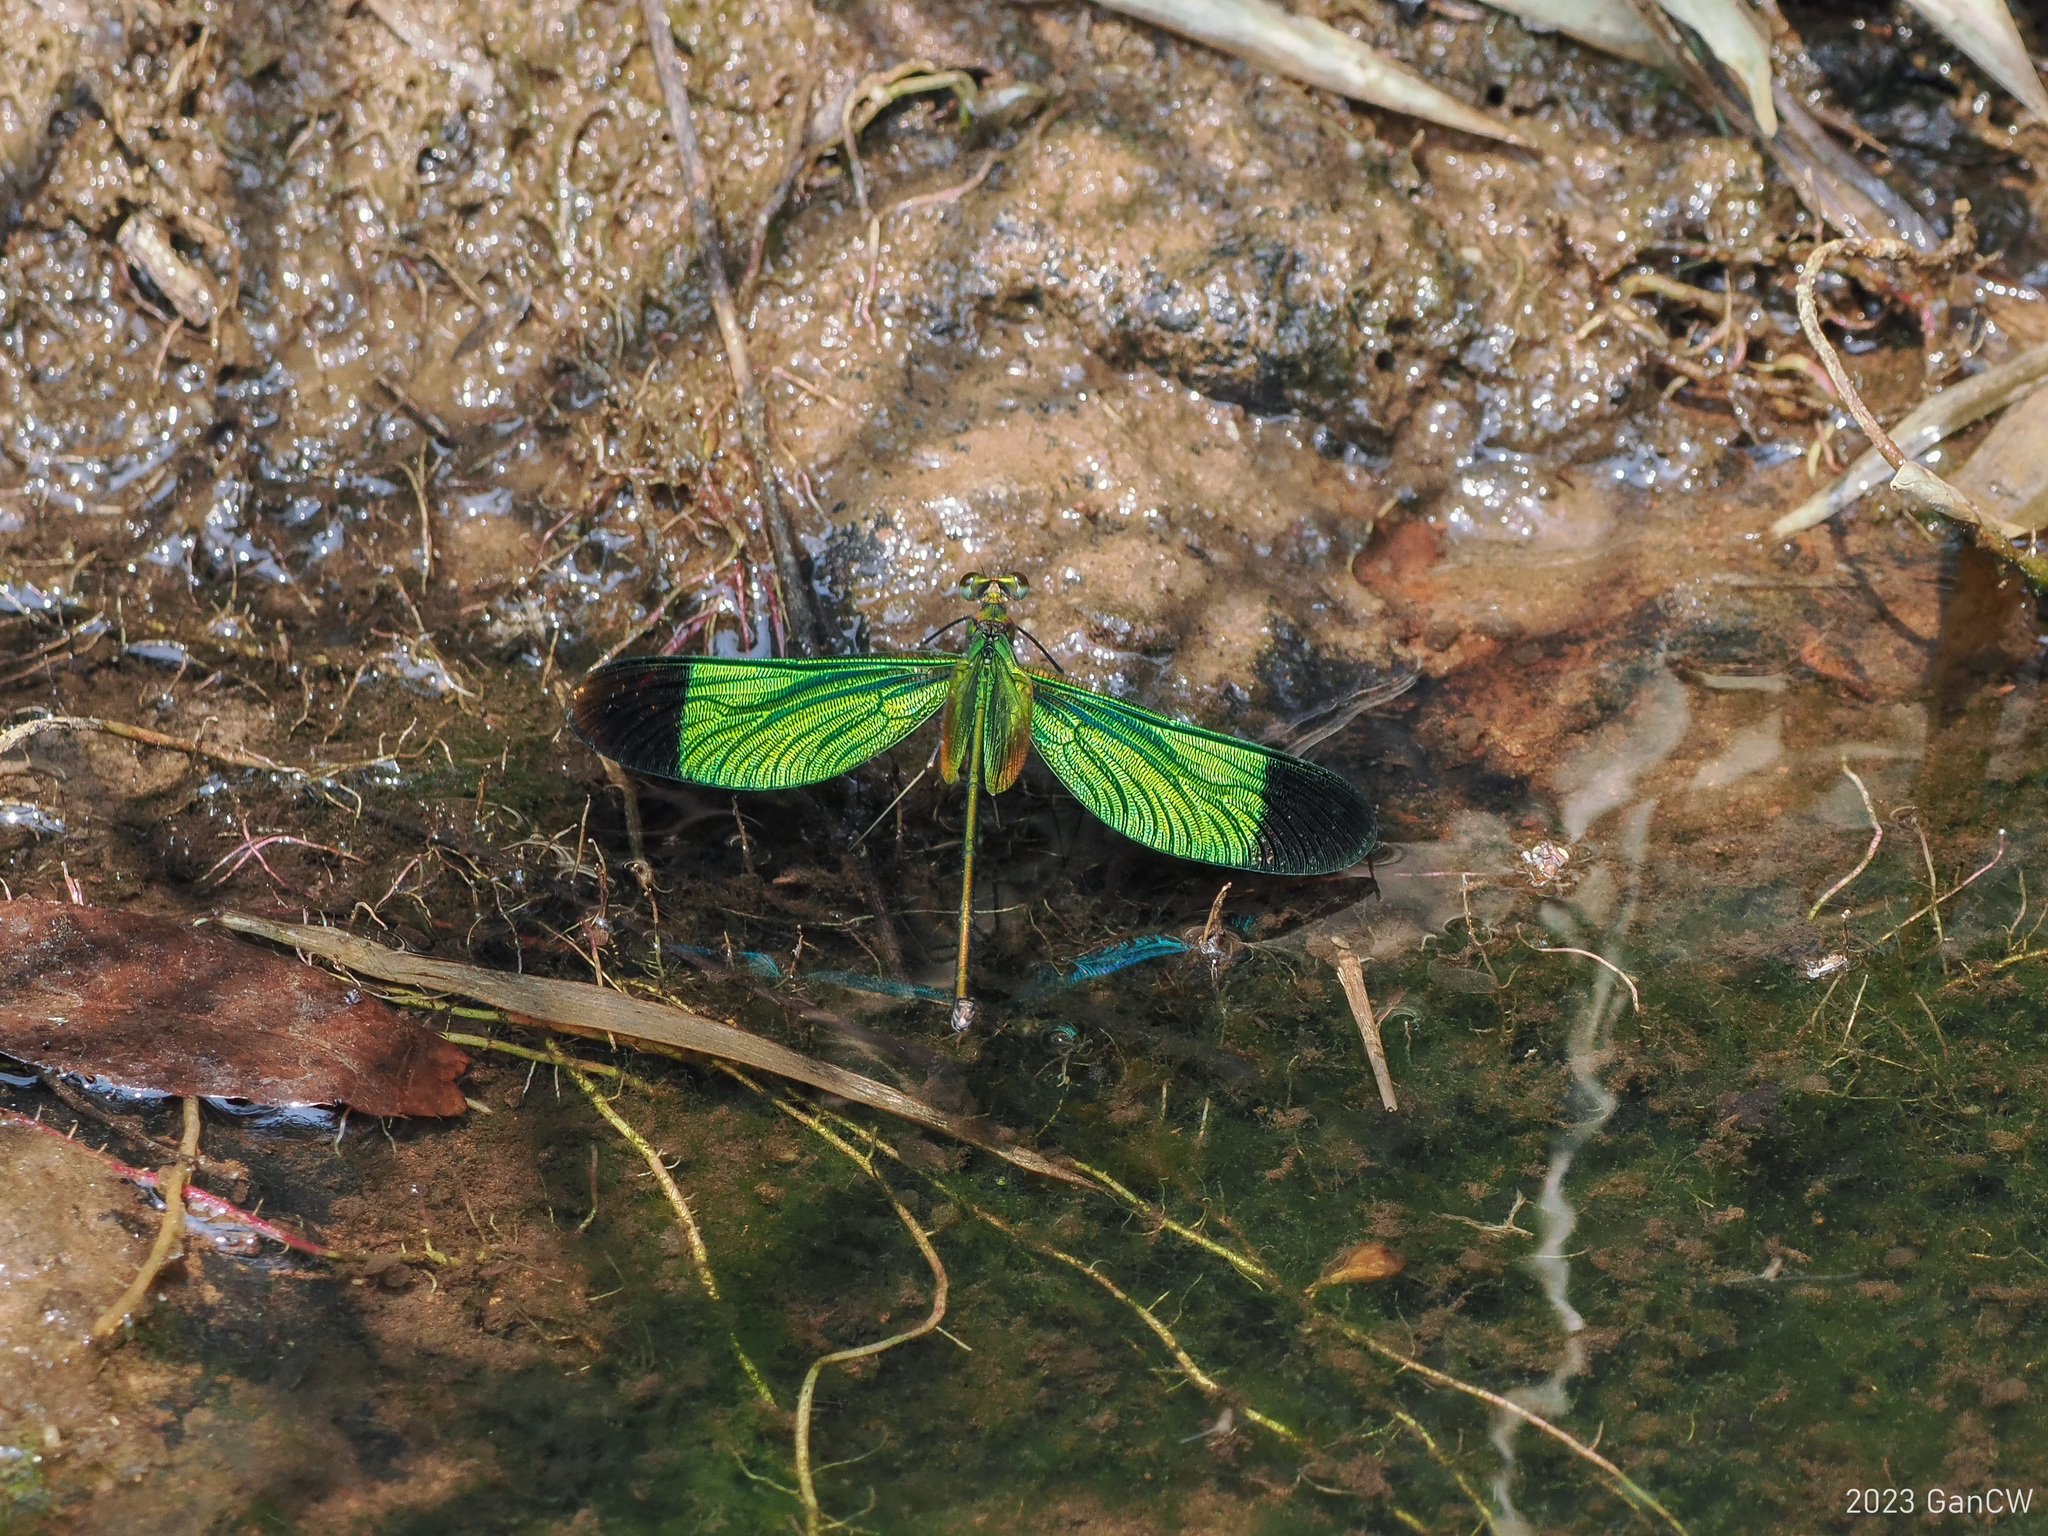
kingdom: Animalia
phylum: Arthropoda
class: Insecta
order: Odonata
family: Calopterygidae
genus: Neurobasis
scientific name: Neurobasis chinensis
